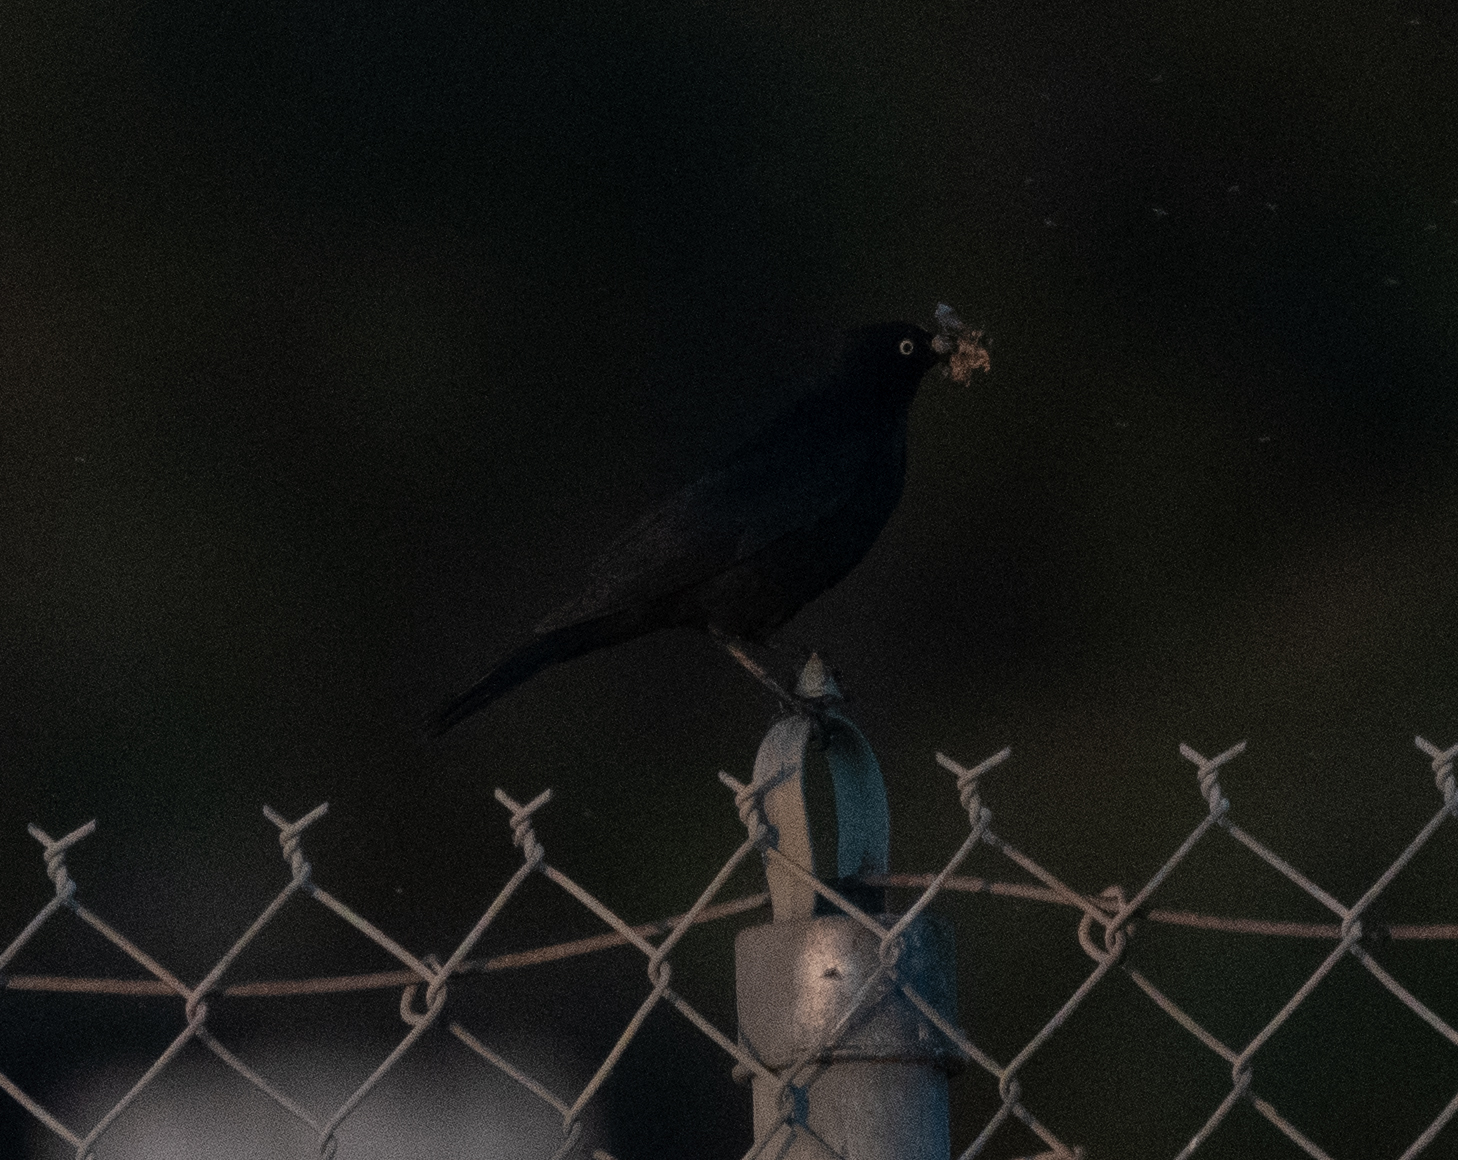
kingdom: Animalia
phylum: Chordata
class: Aves
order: Passeriformes
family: Icteridae
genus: Euphagus
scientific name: Euphagus cyanocephalus
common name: Brewer's blackbird
